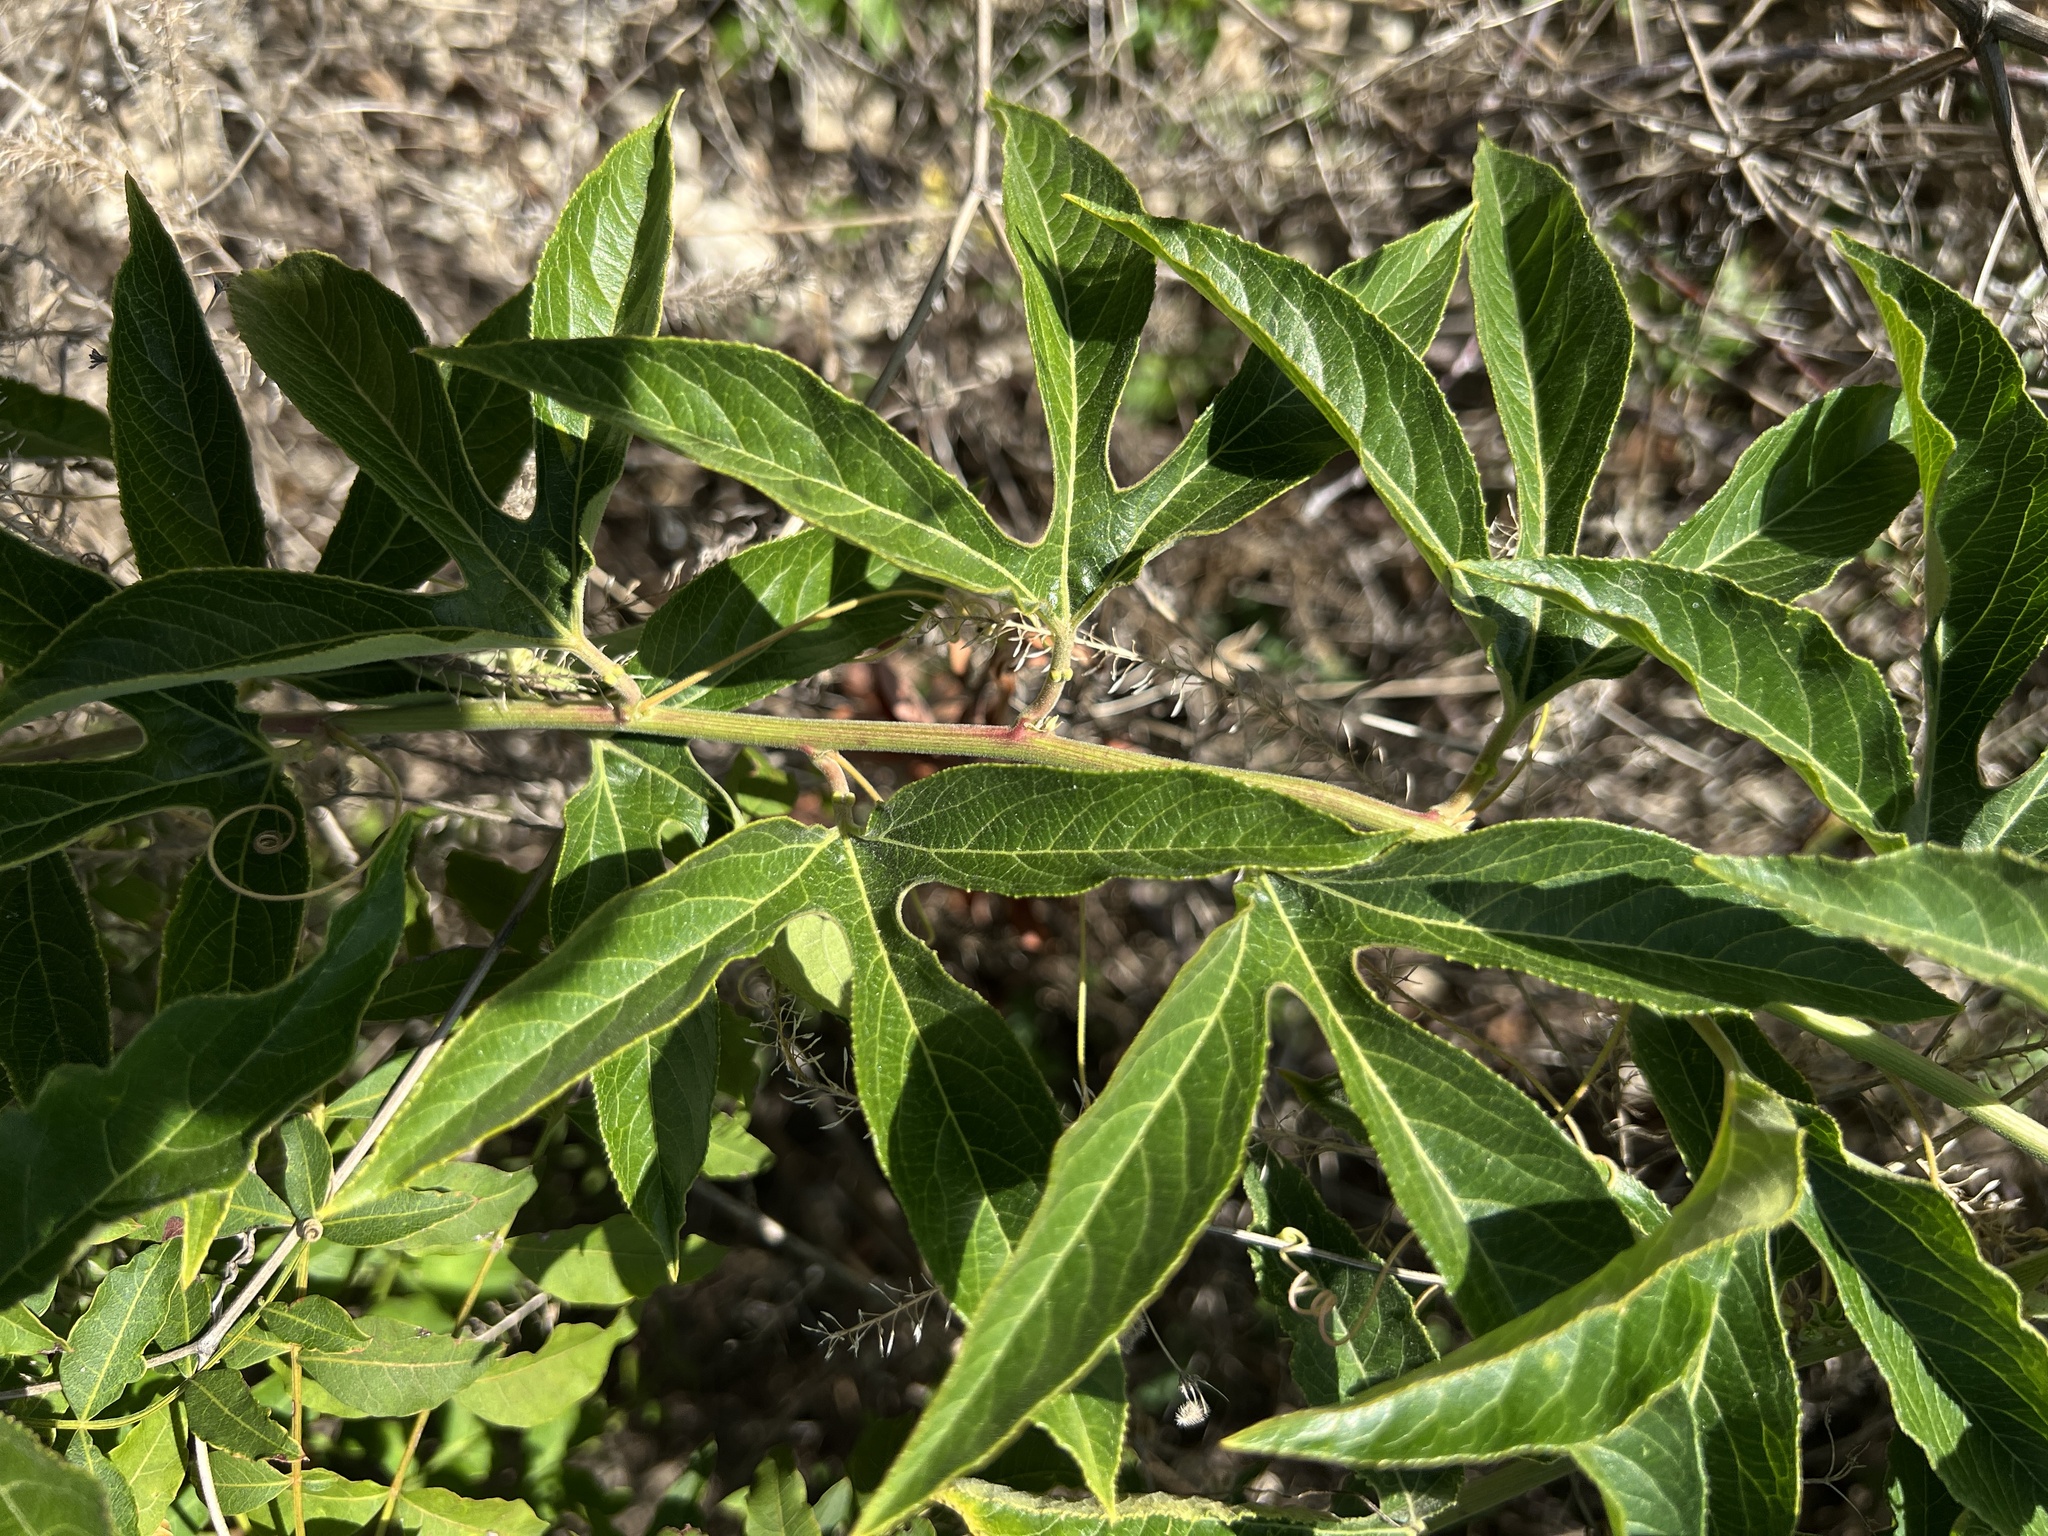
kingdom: Plantae
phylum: Tracheophyta
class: Magnoliopsida
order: Malpighiales
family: Passifloraceae
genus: Passiflora
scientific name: Passiflora incarnata
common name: Apricot-vine
